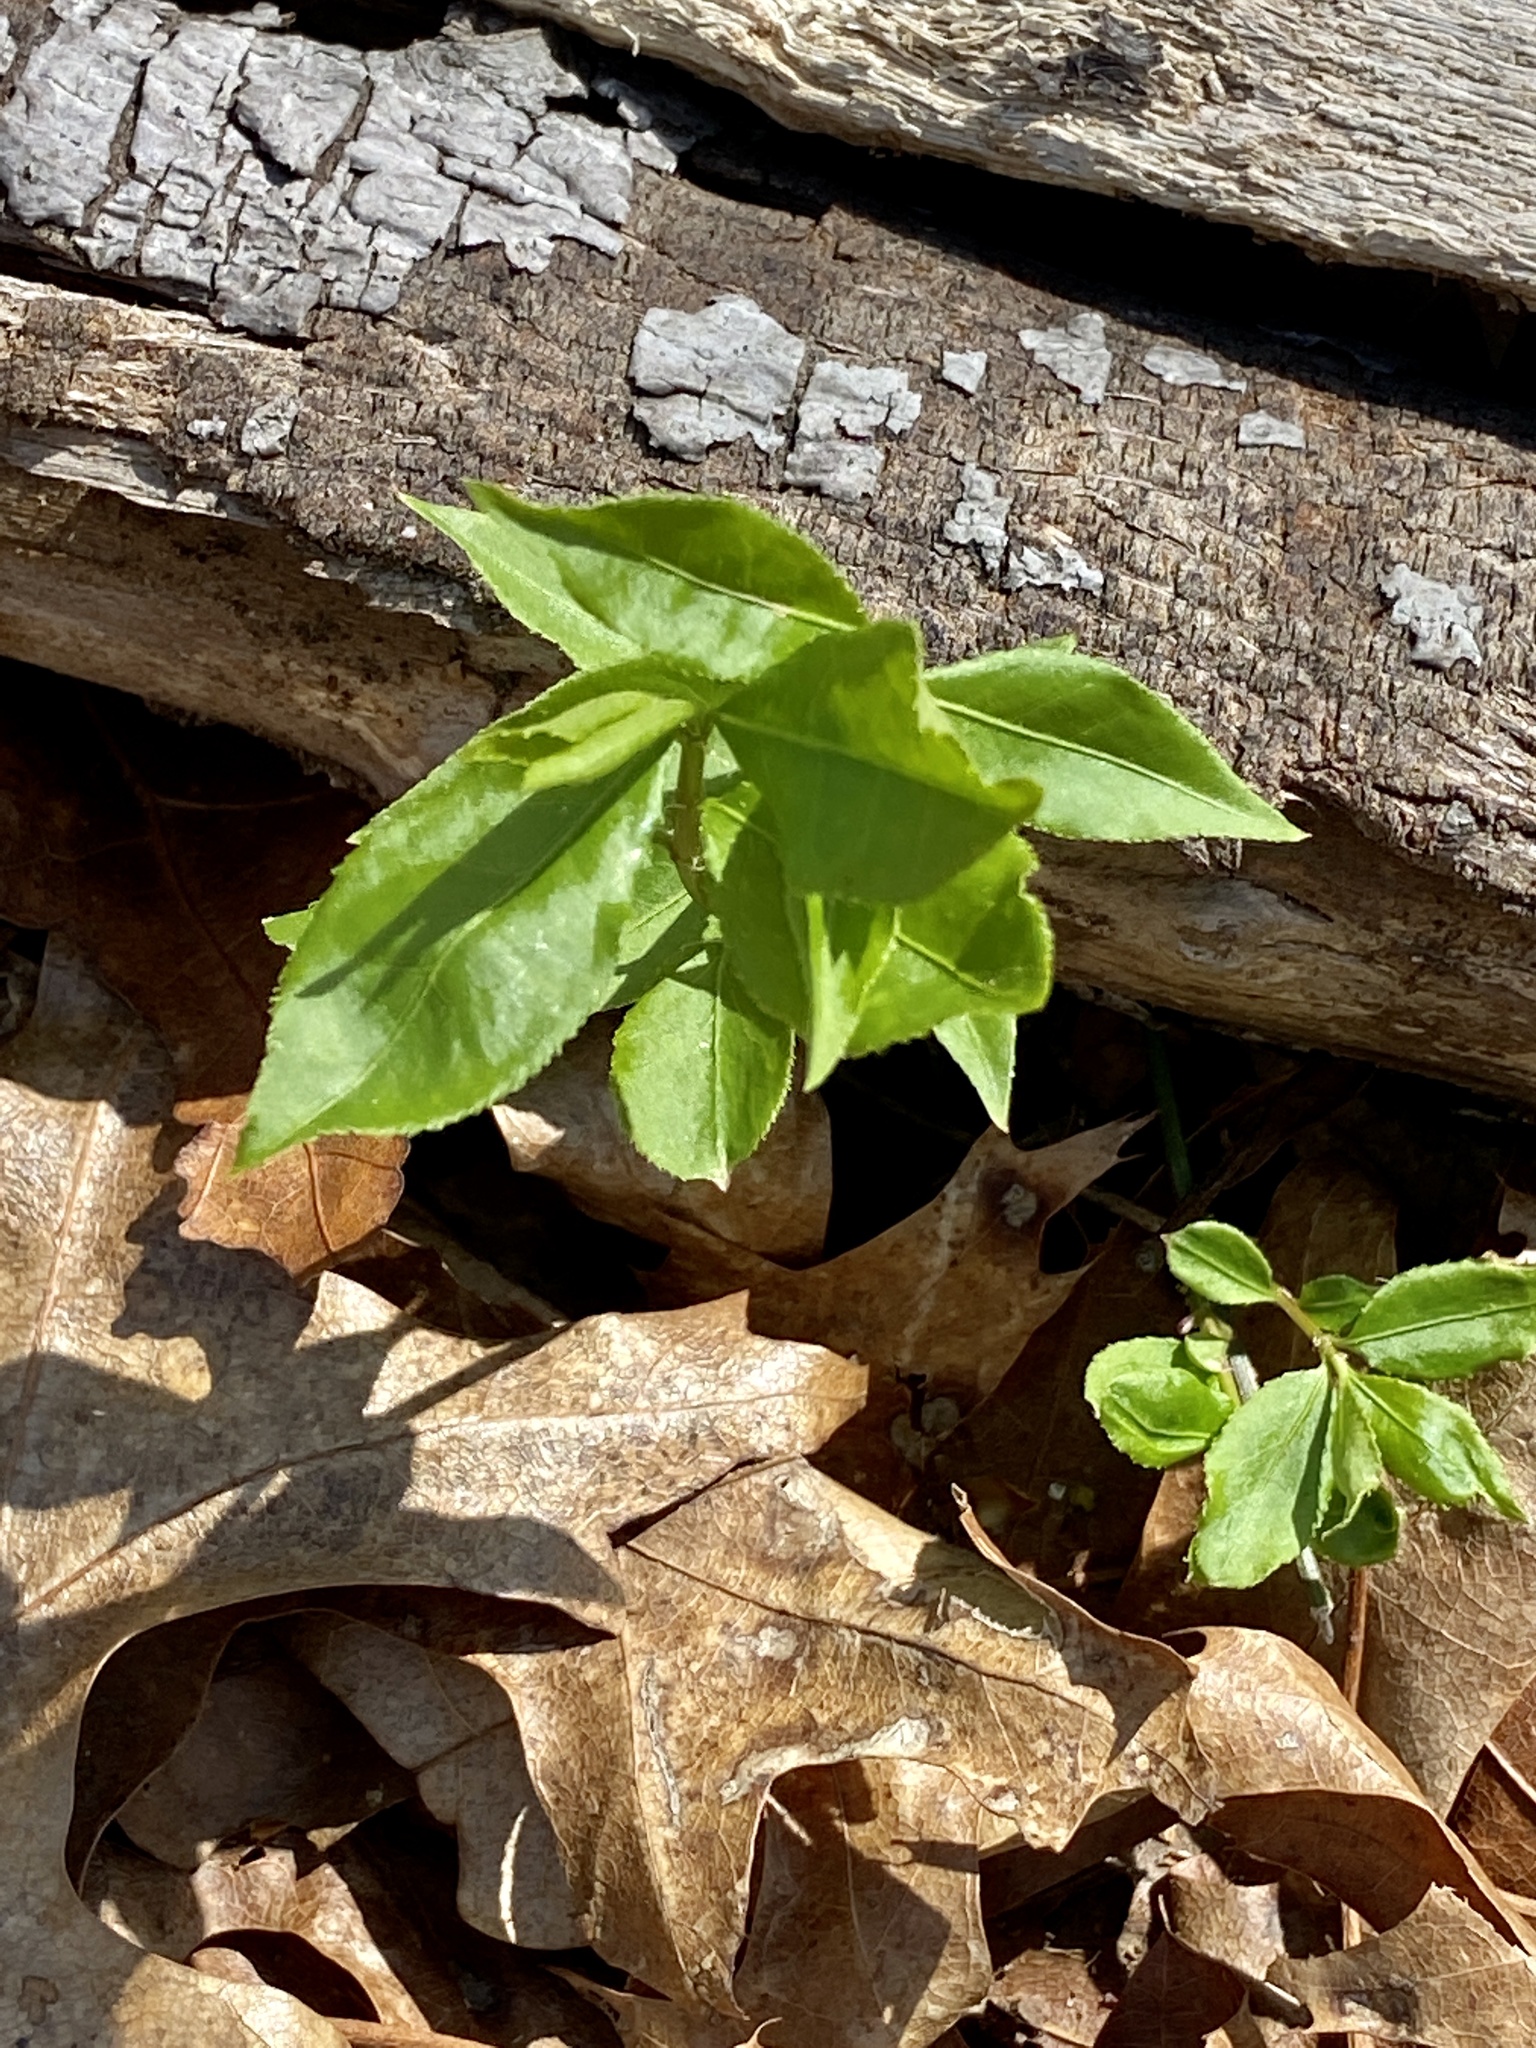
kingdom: Plantae
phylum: Tracheophyta
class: Magnoliopsida
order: Celastrales
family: Celastraceae
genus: Euonymus
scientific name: Euonymus alatus
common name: Winged euonymus
